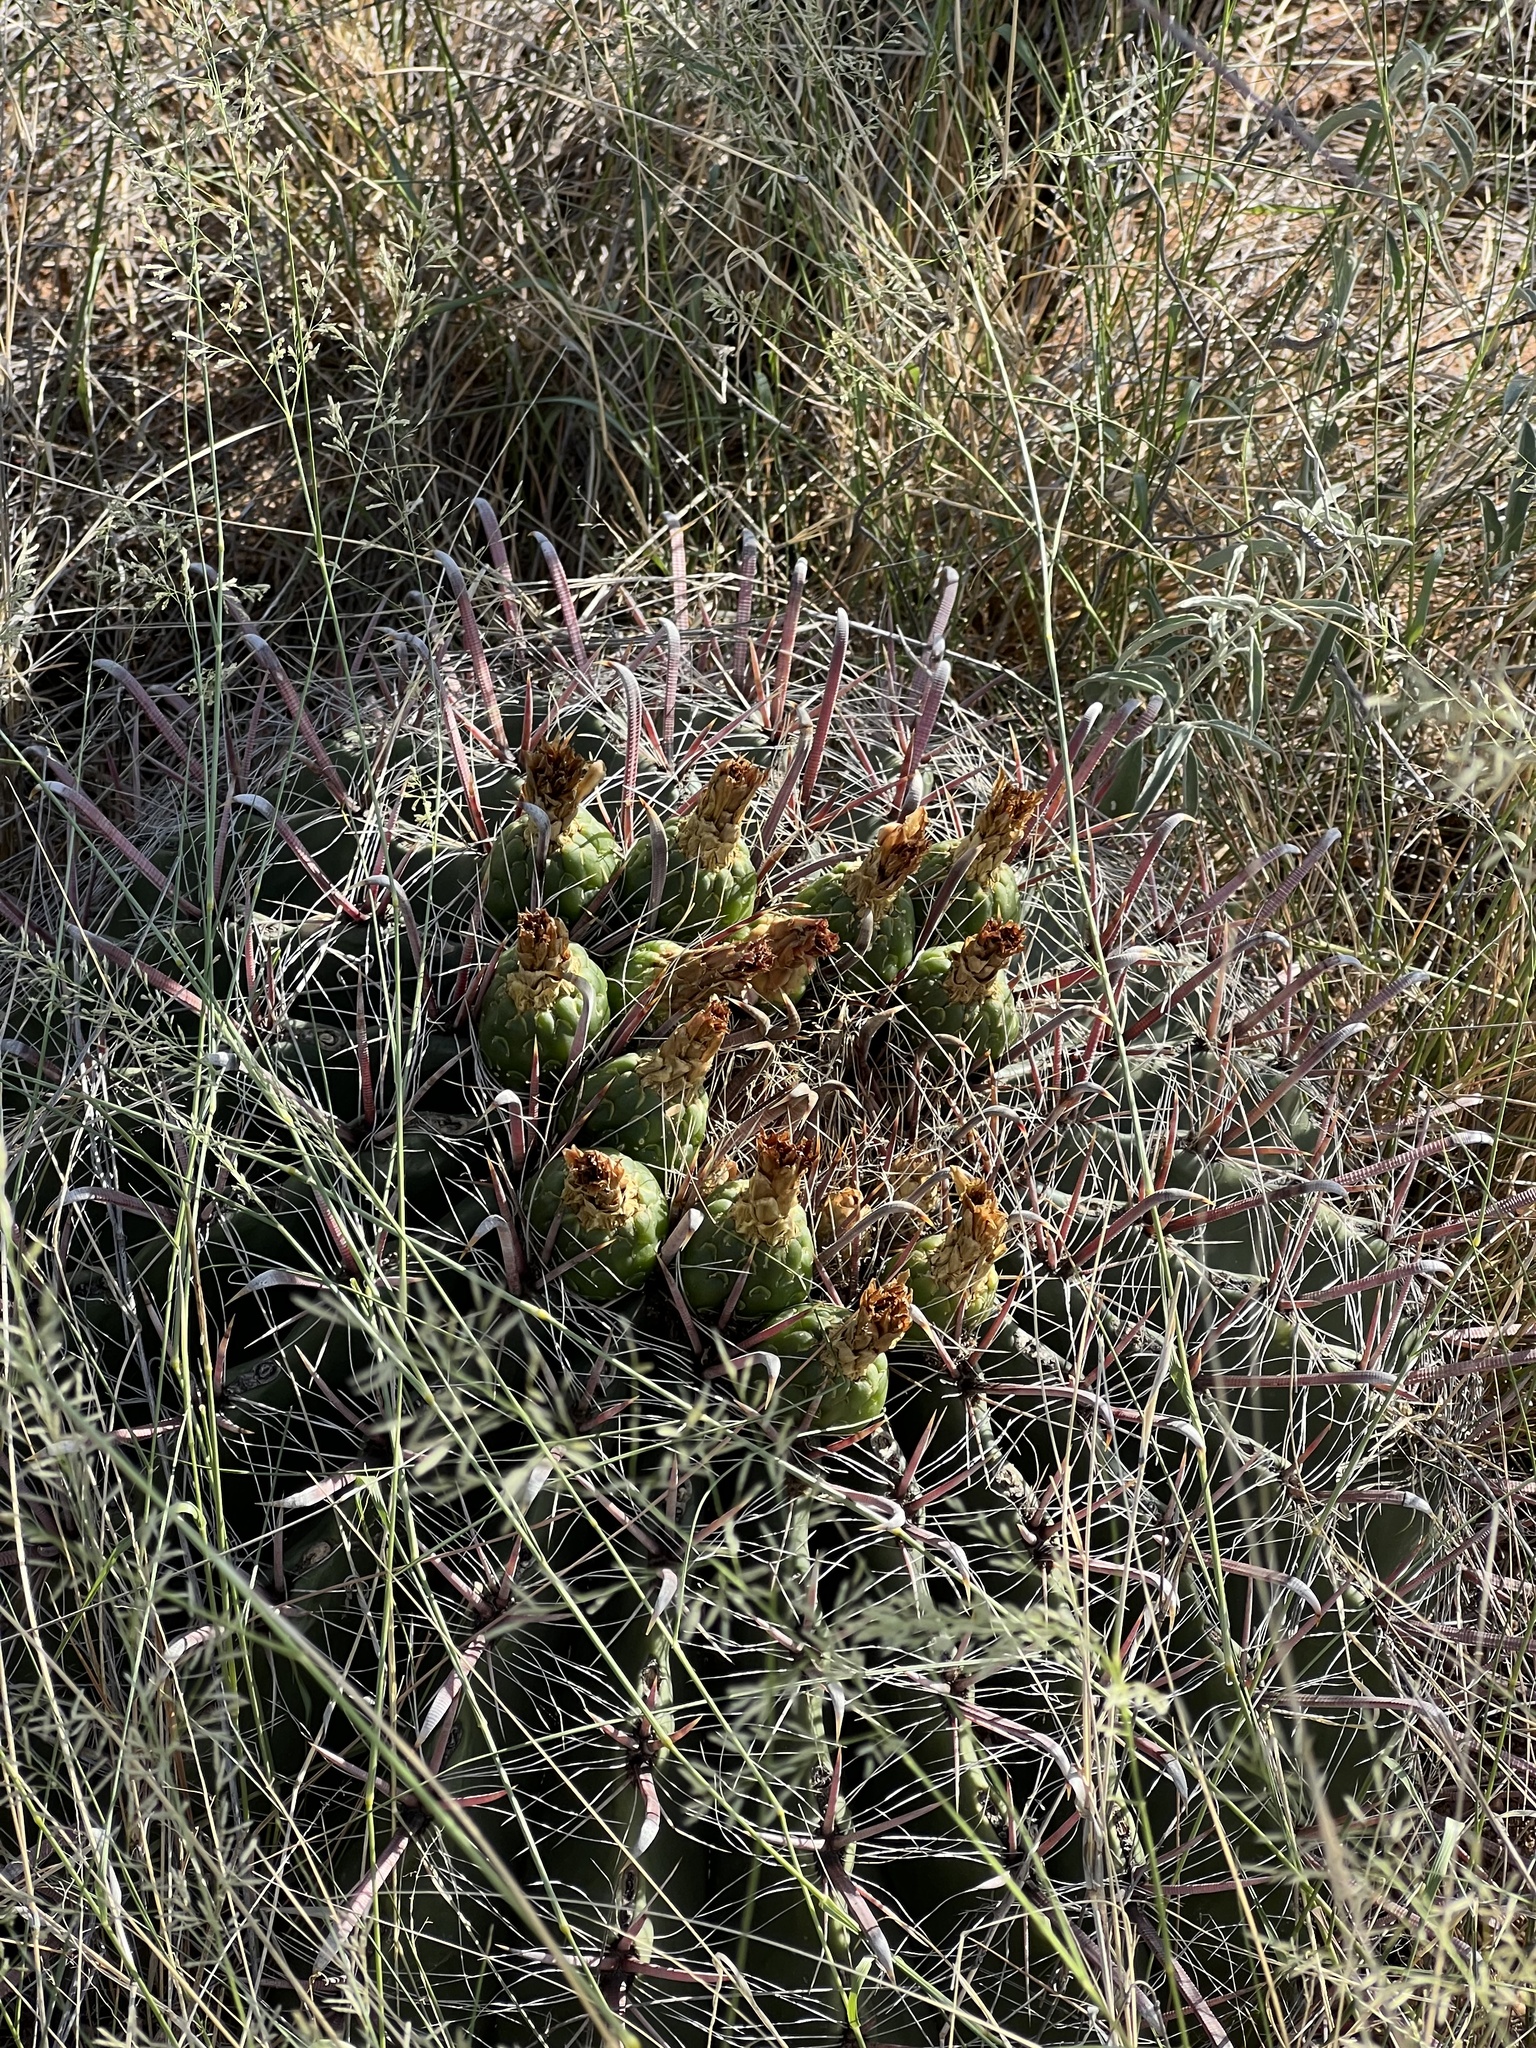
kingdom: Plantae
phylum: Tracheophyta
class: Magnoliopsida
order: Caryophyllales
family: Cactaceae
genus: Ferocactus
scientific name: Ferocactus wislizeni
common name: Candy barrel cactus
